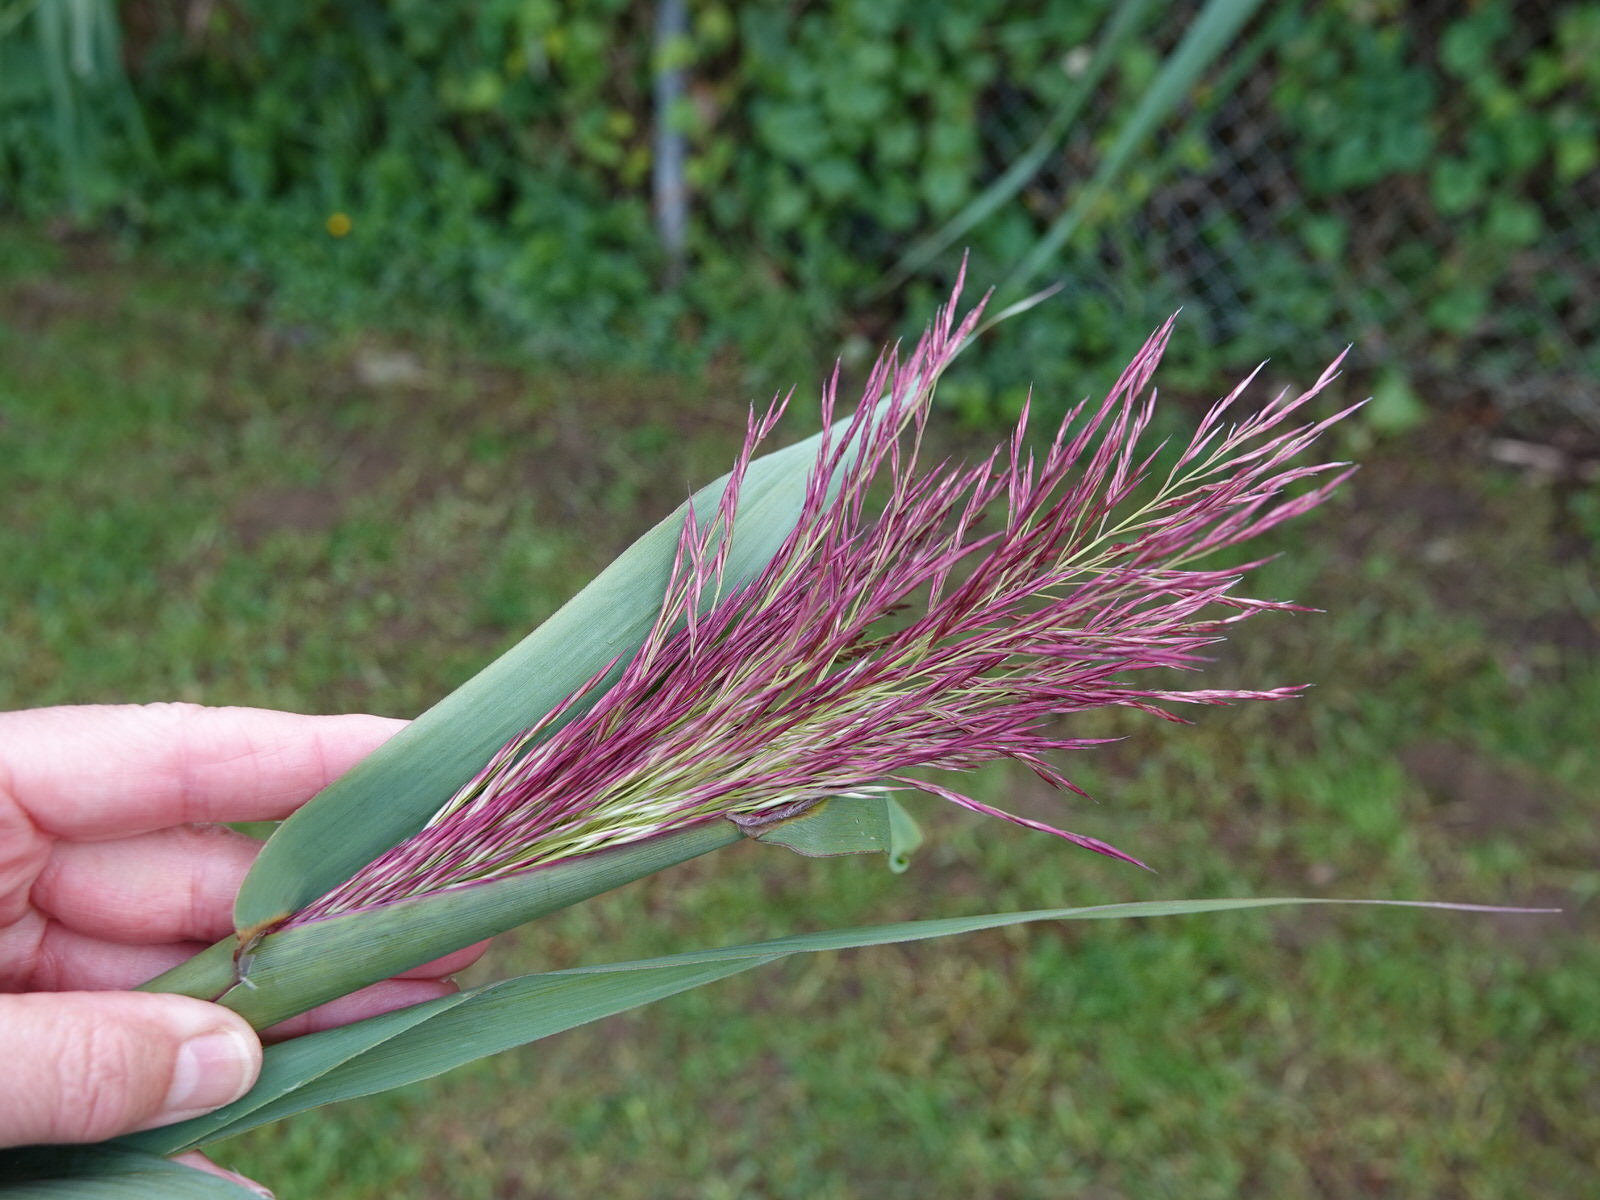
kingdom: Plantae
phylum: Tracheophyta
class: Liliopsida
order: Poales
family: Poaceae
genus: Arundo
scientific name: Arundo donax
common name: Giant reed
